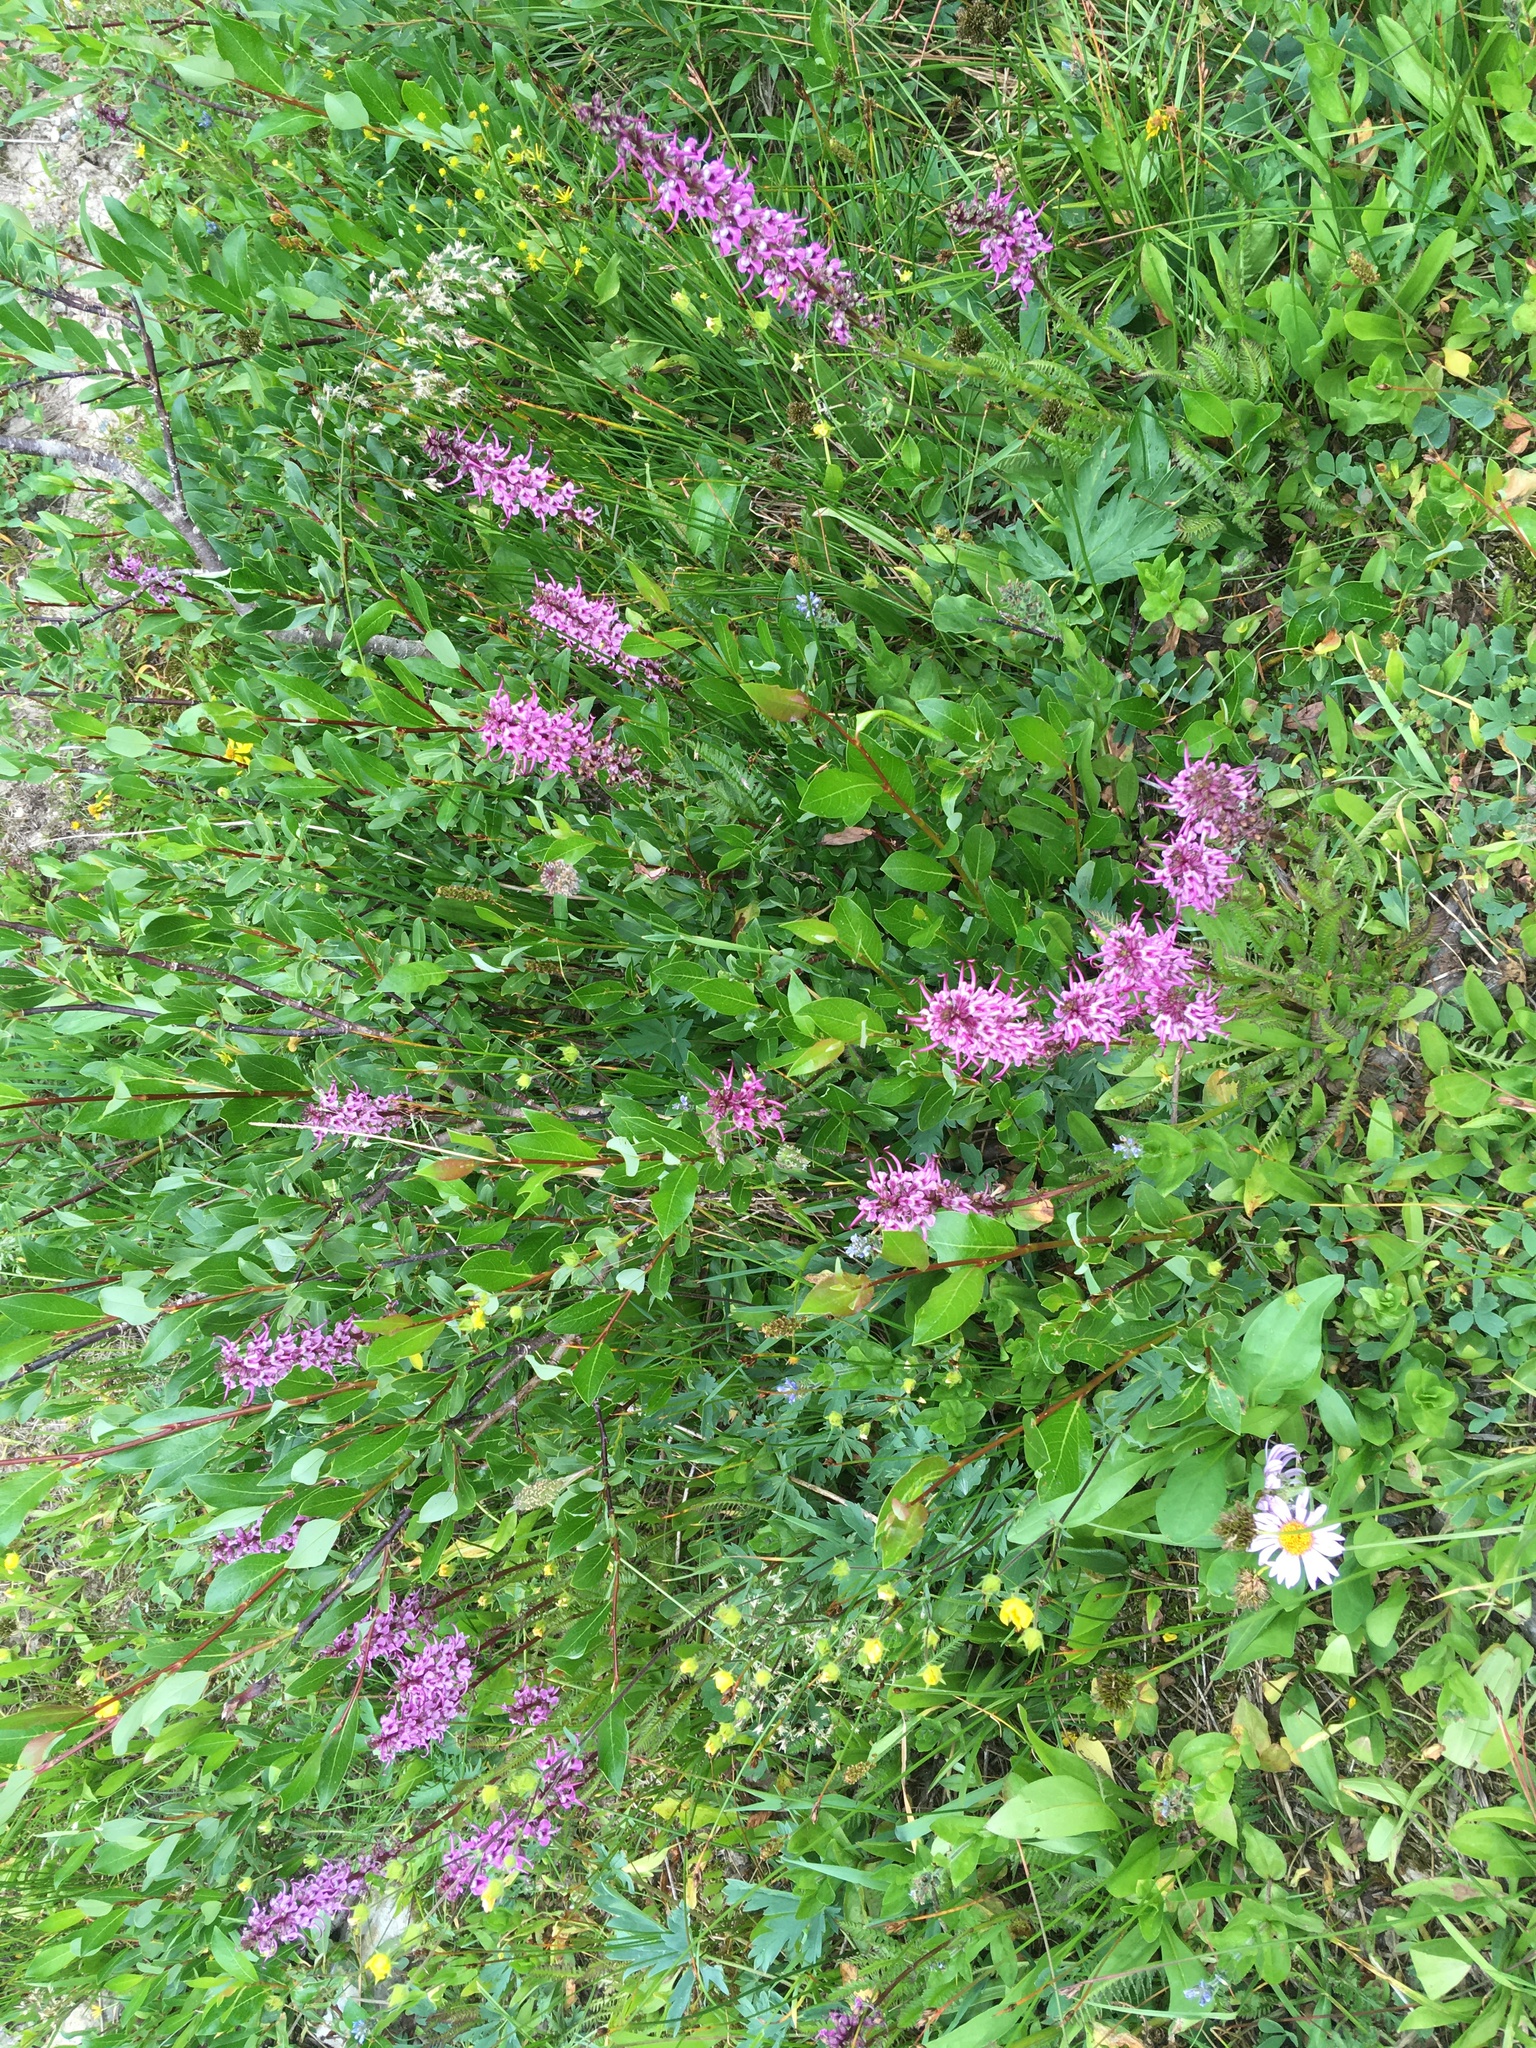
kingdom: Plantae
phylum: Tracheophyta
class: Magnoliopsida
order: Lamiales
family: Orobanchaceae
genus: Pedicularis
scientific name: Pedicularis groenlandica
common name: Elephant's-head
